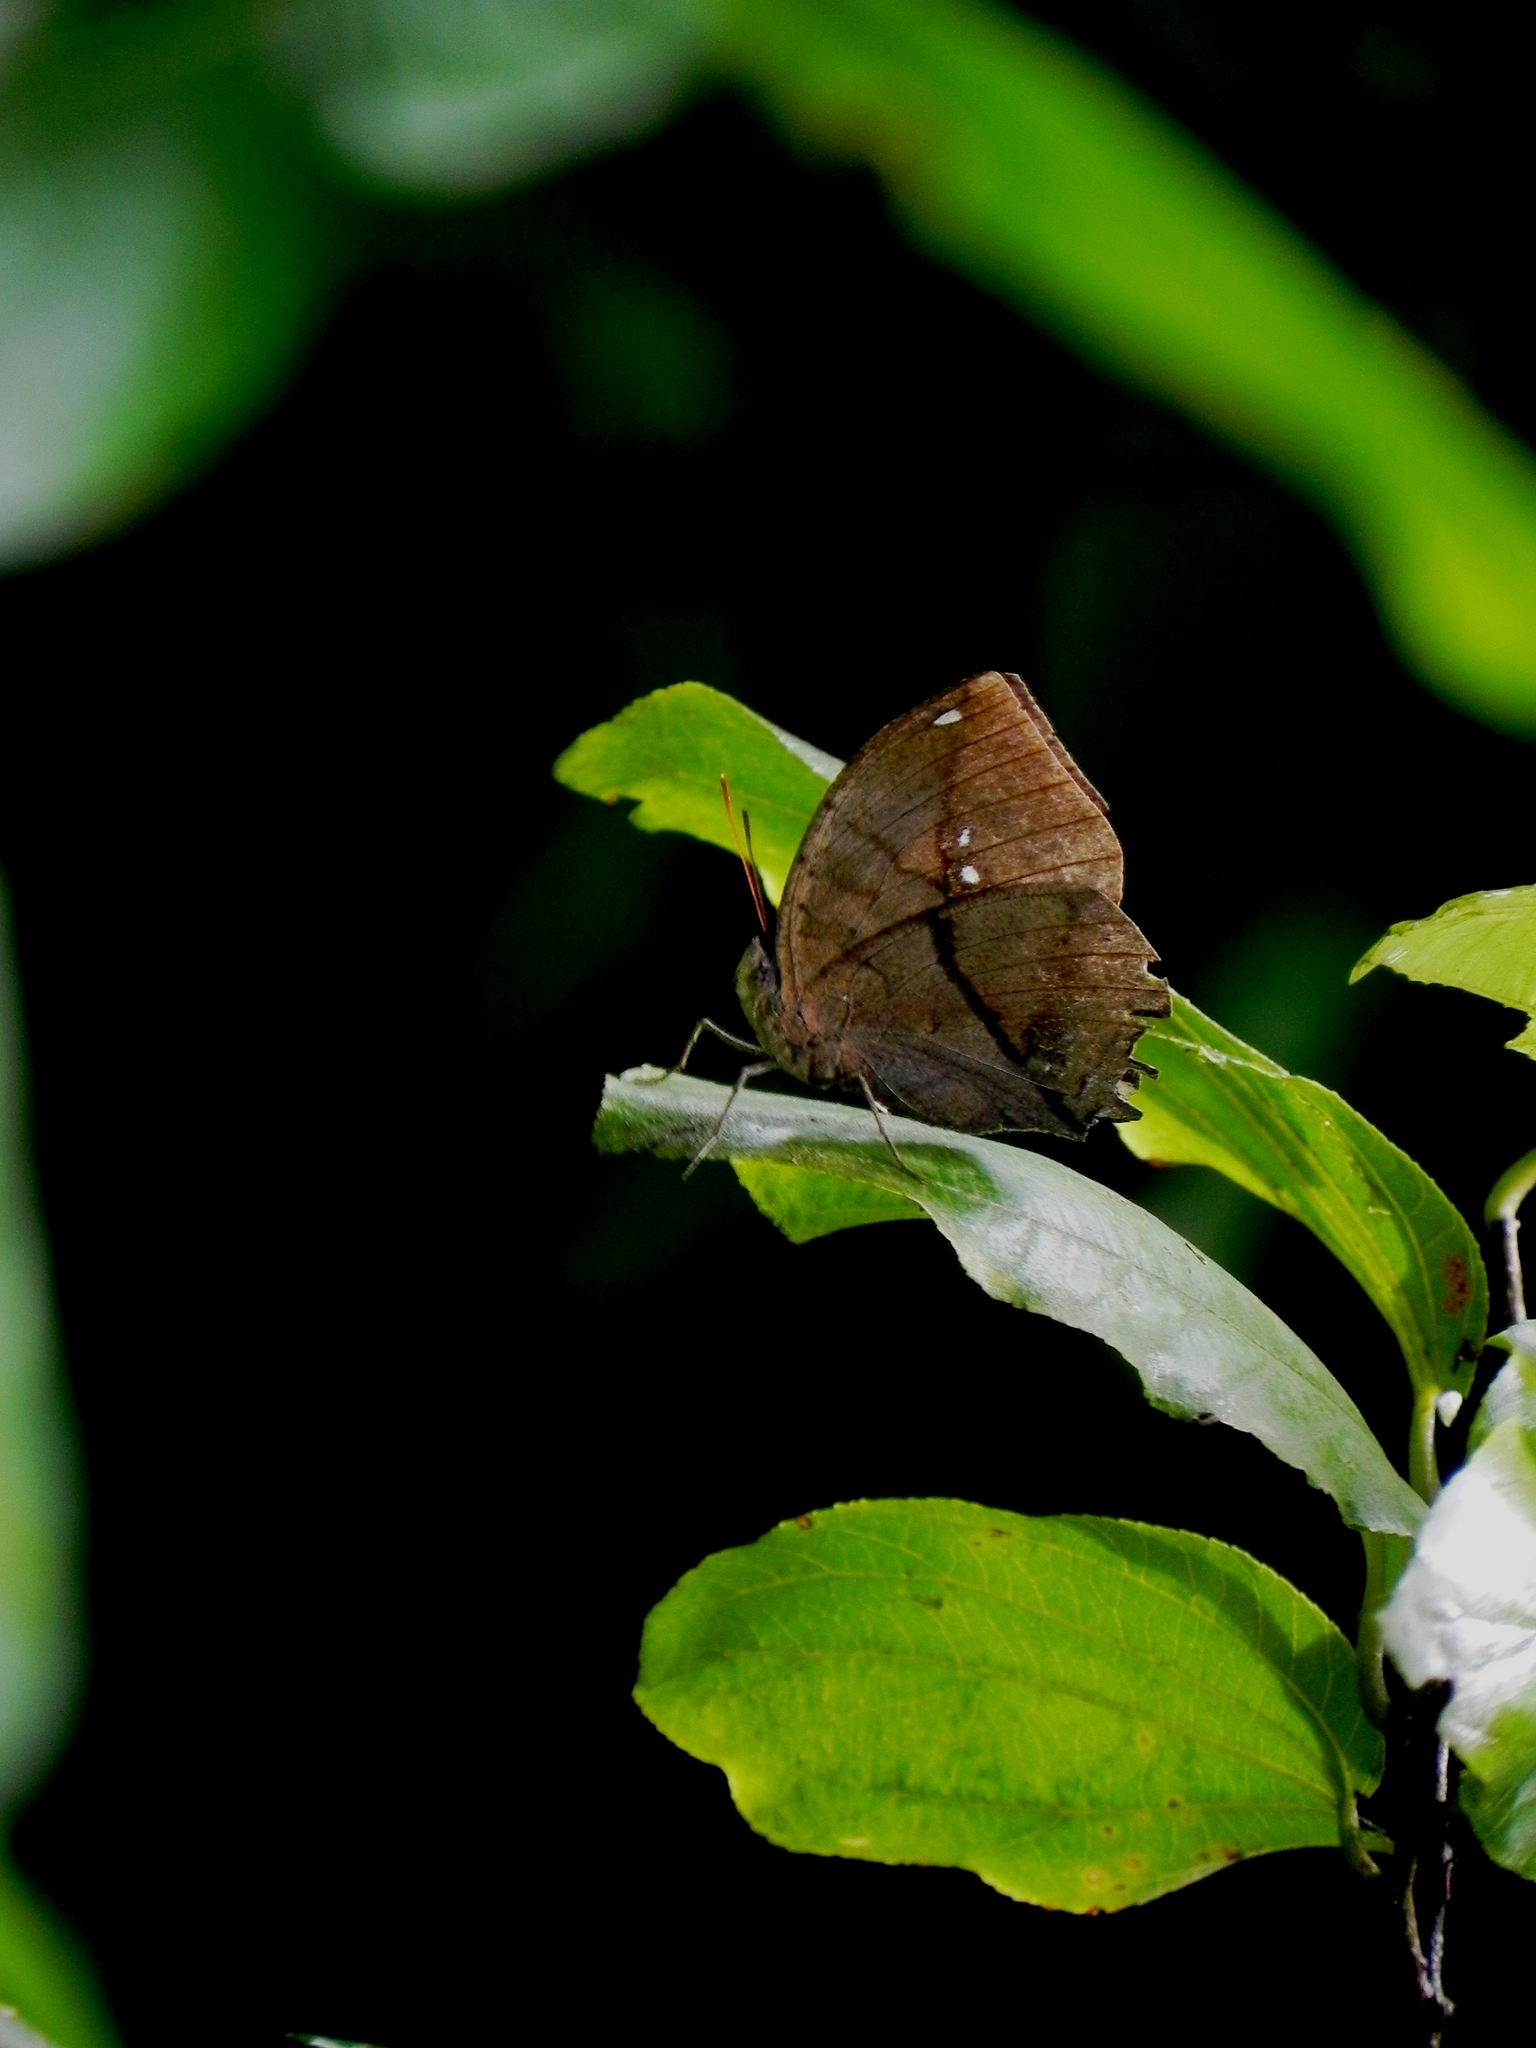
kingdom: Animalia
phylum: Arthropoda
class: Insecta
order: Lepidoptera
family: Nymphalidae
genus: Kallima
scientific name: Kallima horsfieldii
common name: Sahyadri blue oakleaf
